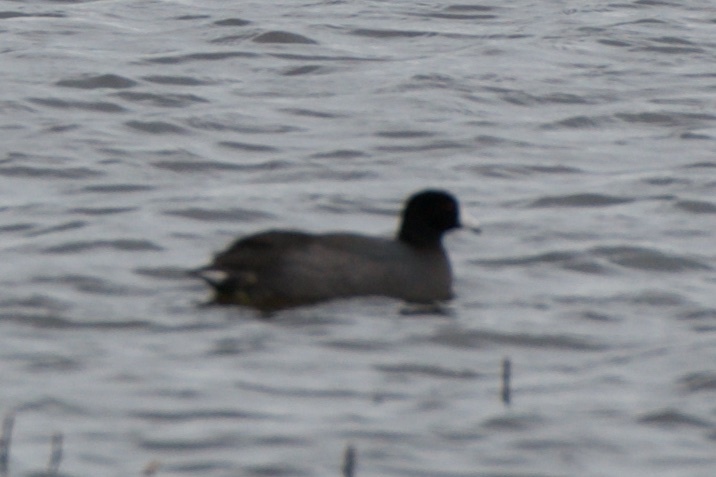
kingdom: Animalia
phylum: Chordata
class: Aves
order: Gruiformes
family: Rallidae
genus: Fulica
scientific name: Fulica americana
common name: American coot
